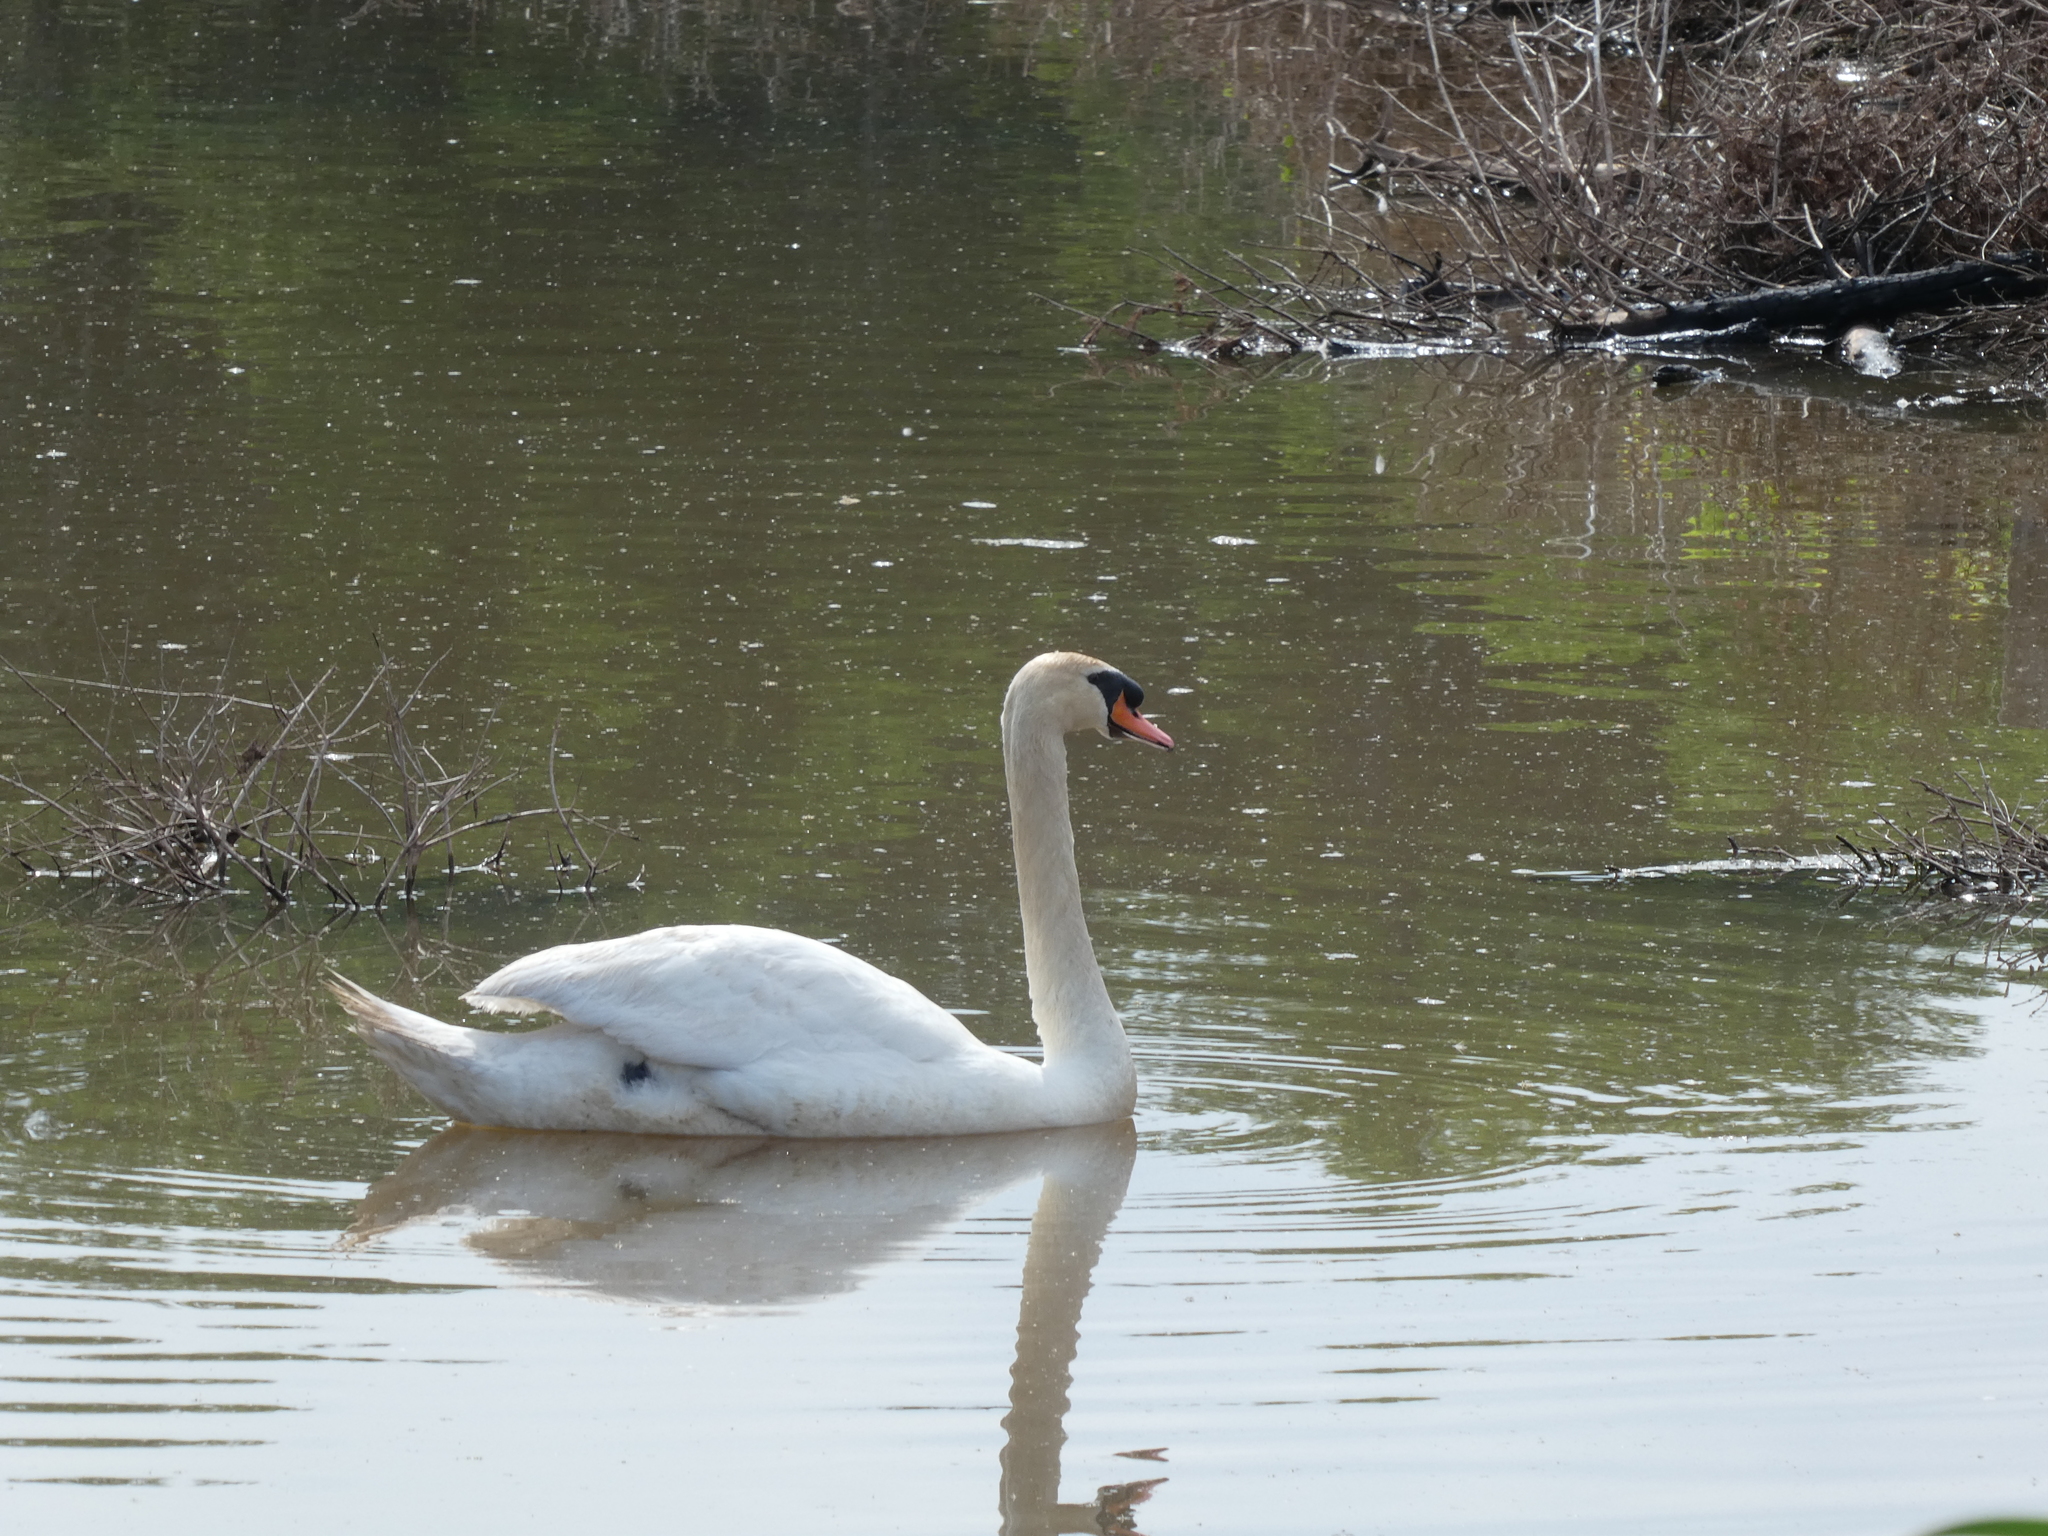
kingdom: Animalia
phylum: Chordata
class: Aves
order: Anseriformes
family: Anatidae
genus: Cygnus
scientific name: Cygnus olor
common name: Mute swan
